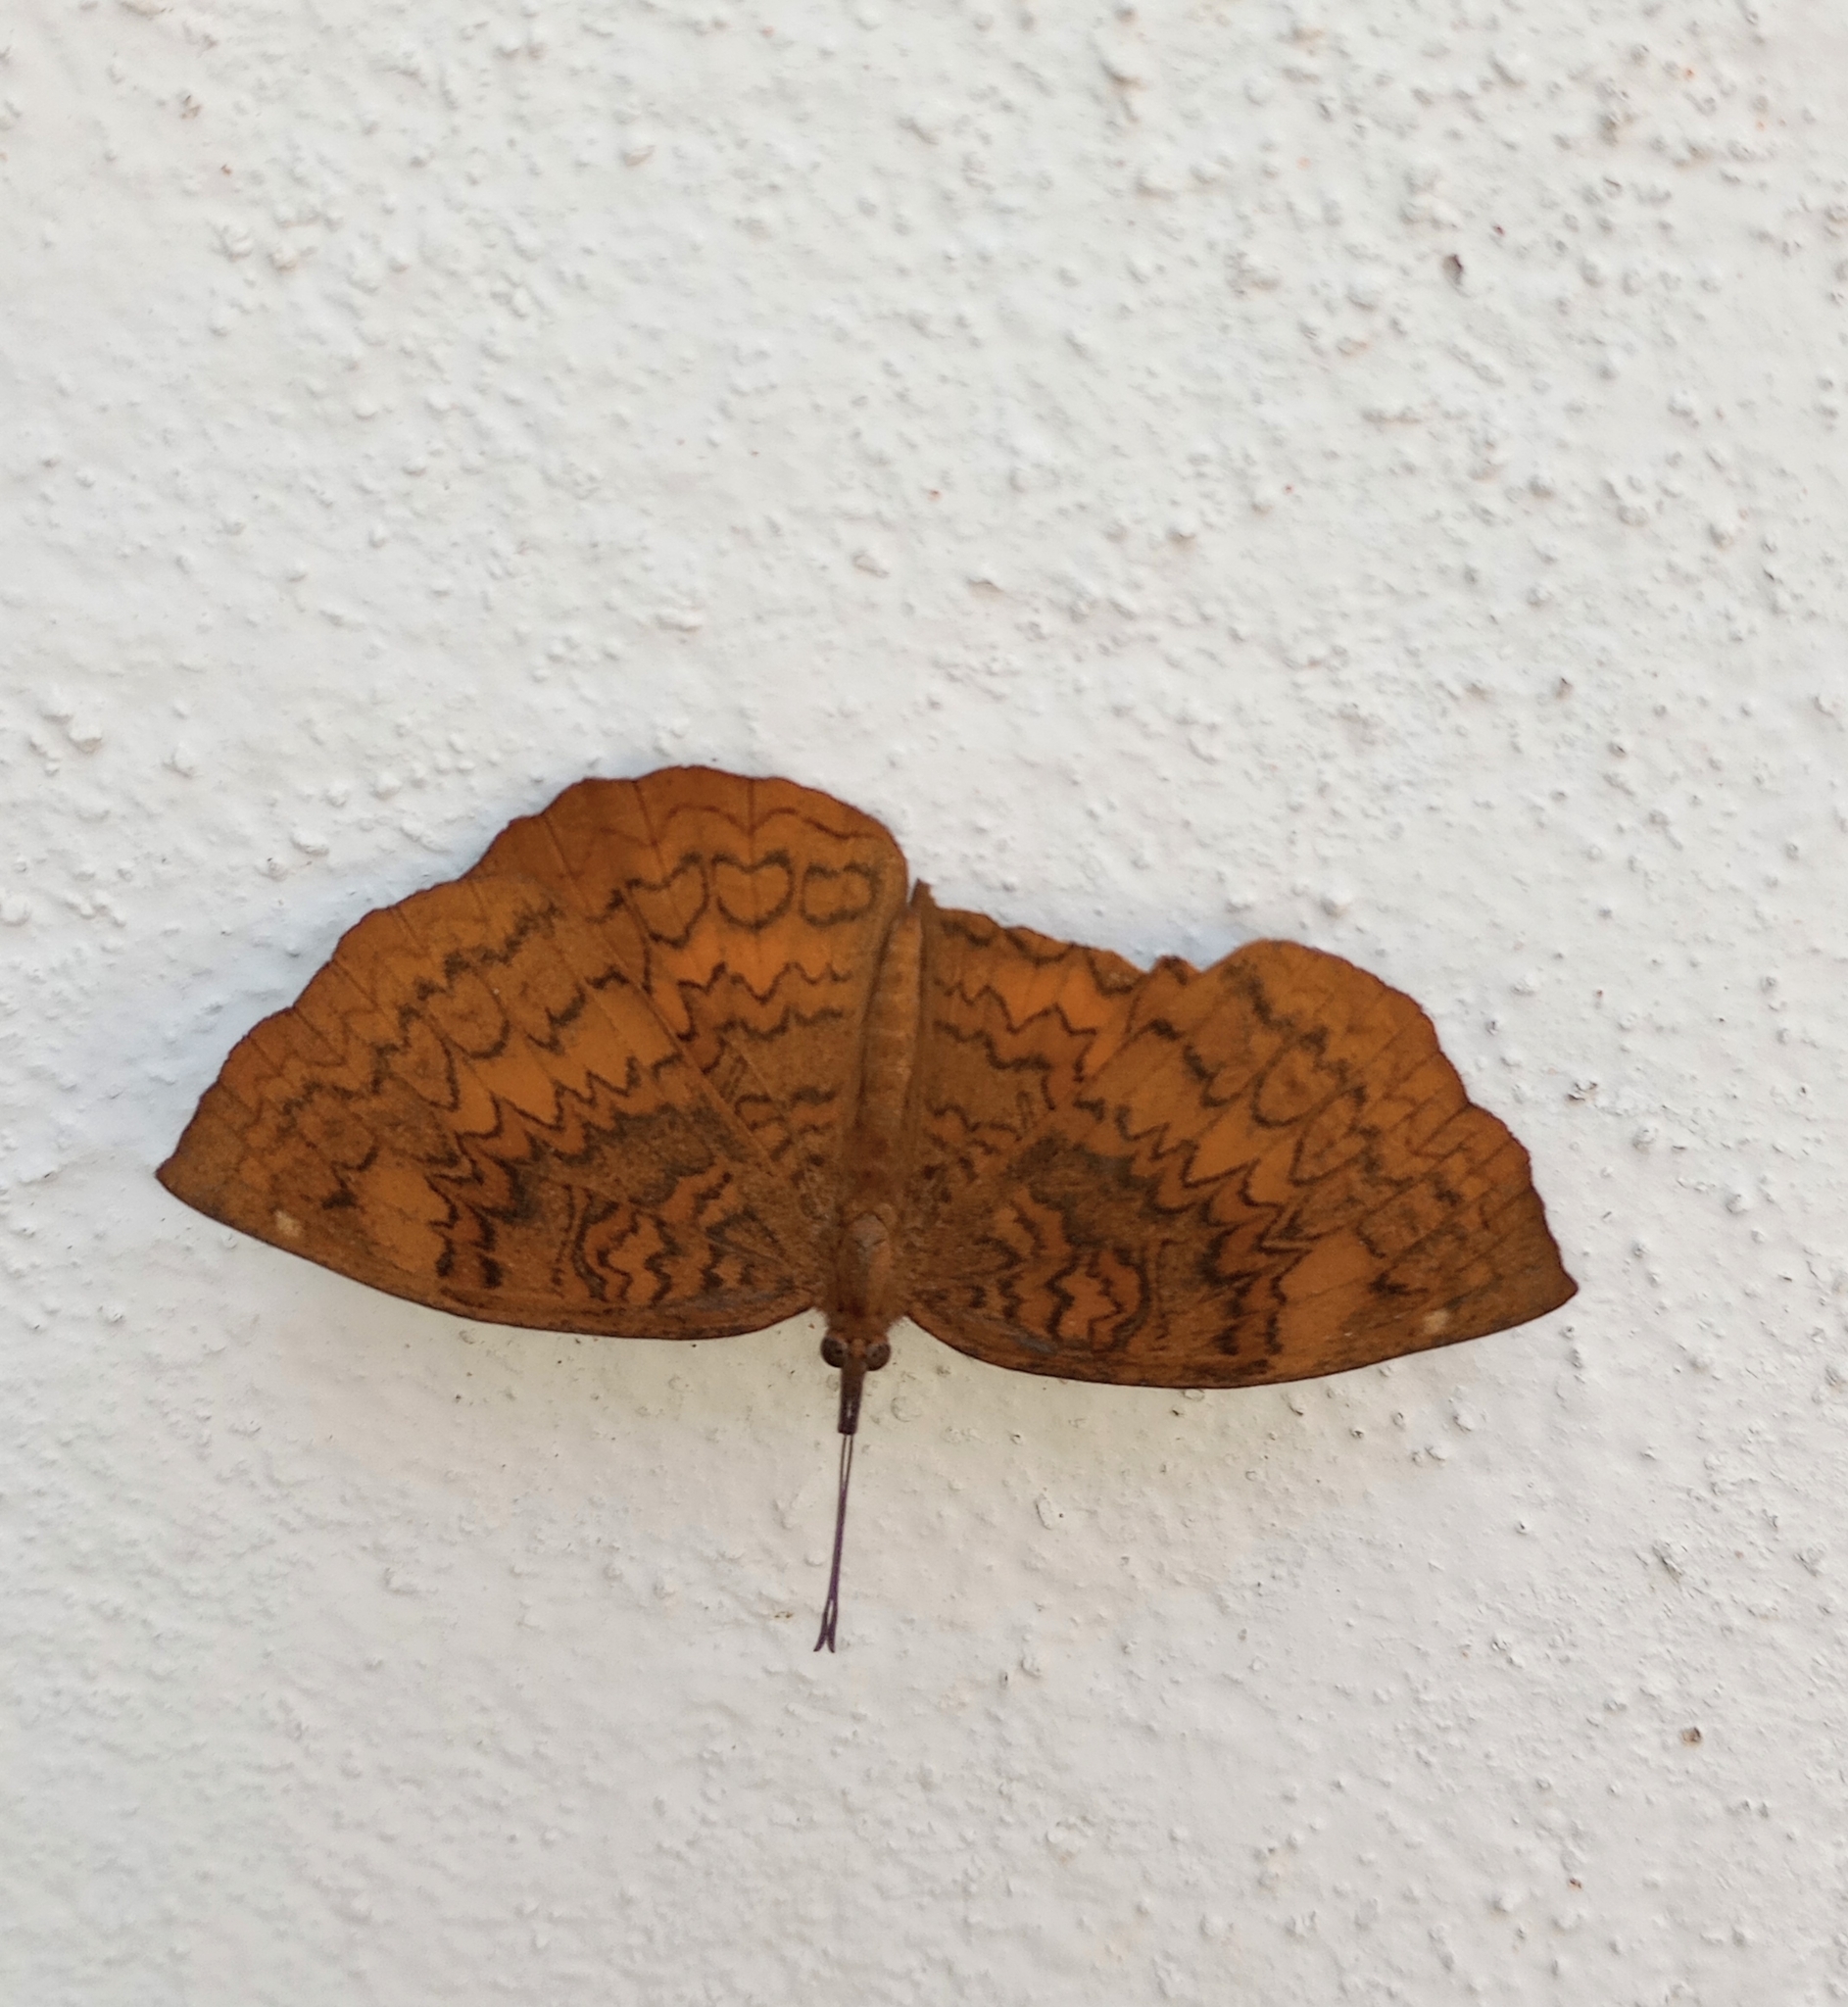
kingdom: Animalia
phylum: Arthropoda
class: Insecta
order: Lepidoptera
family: Nymphalidae
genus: Ariadne
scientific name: Ariadne merione
